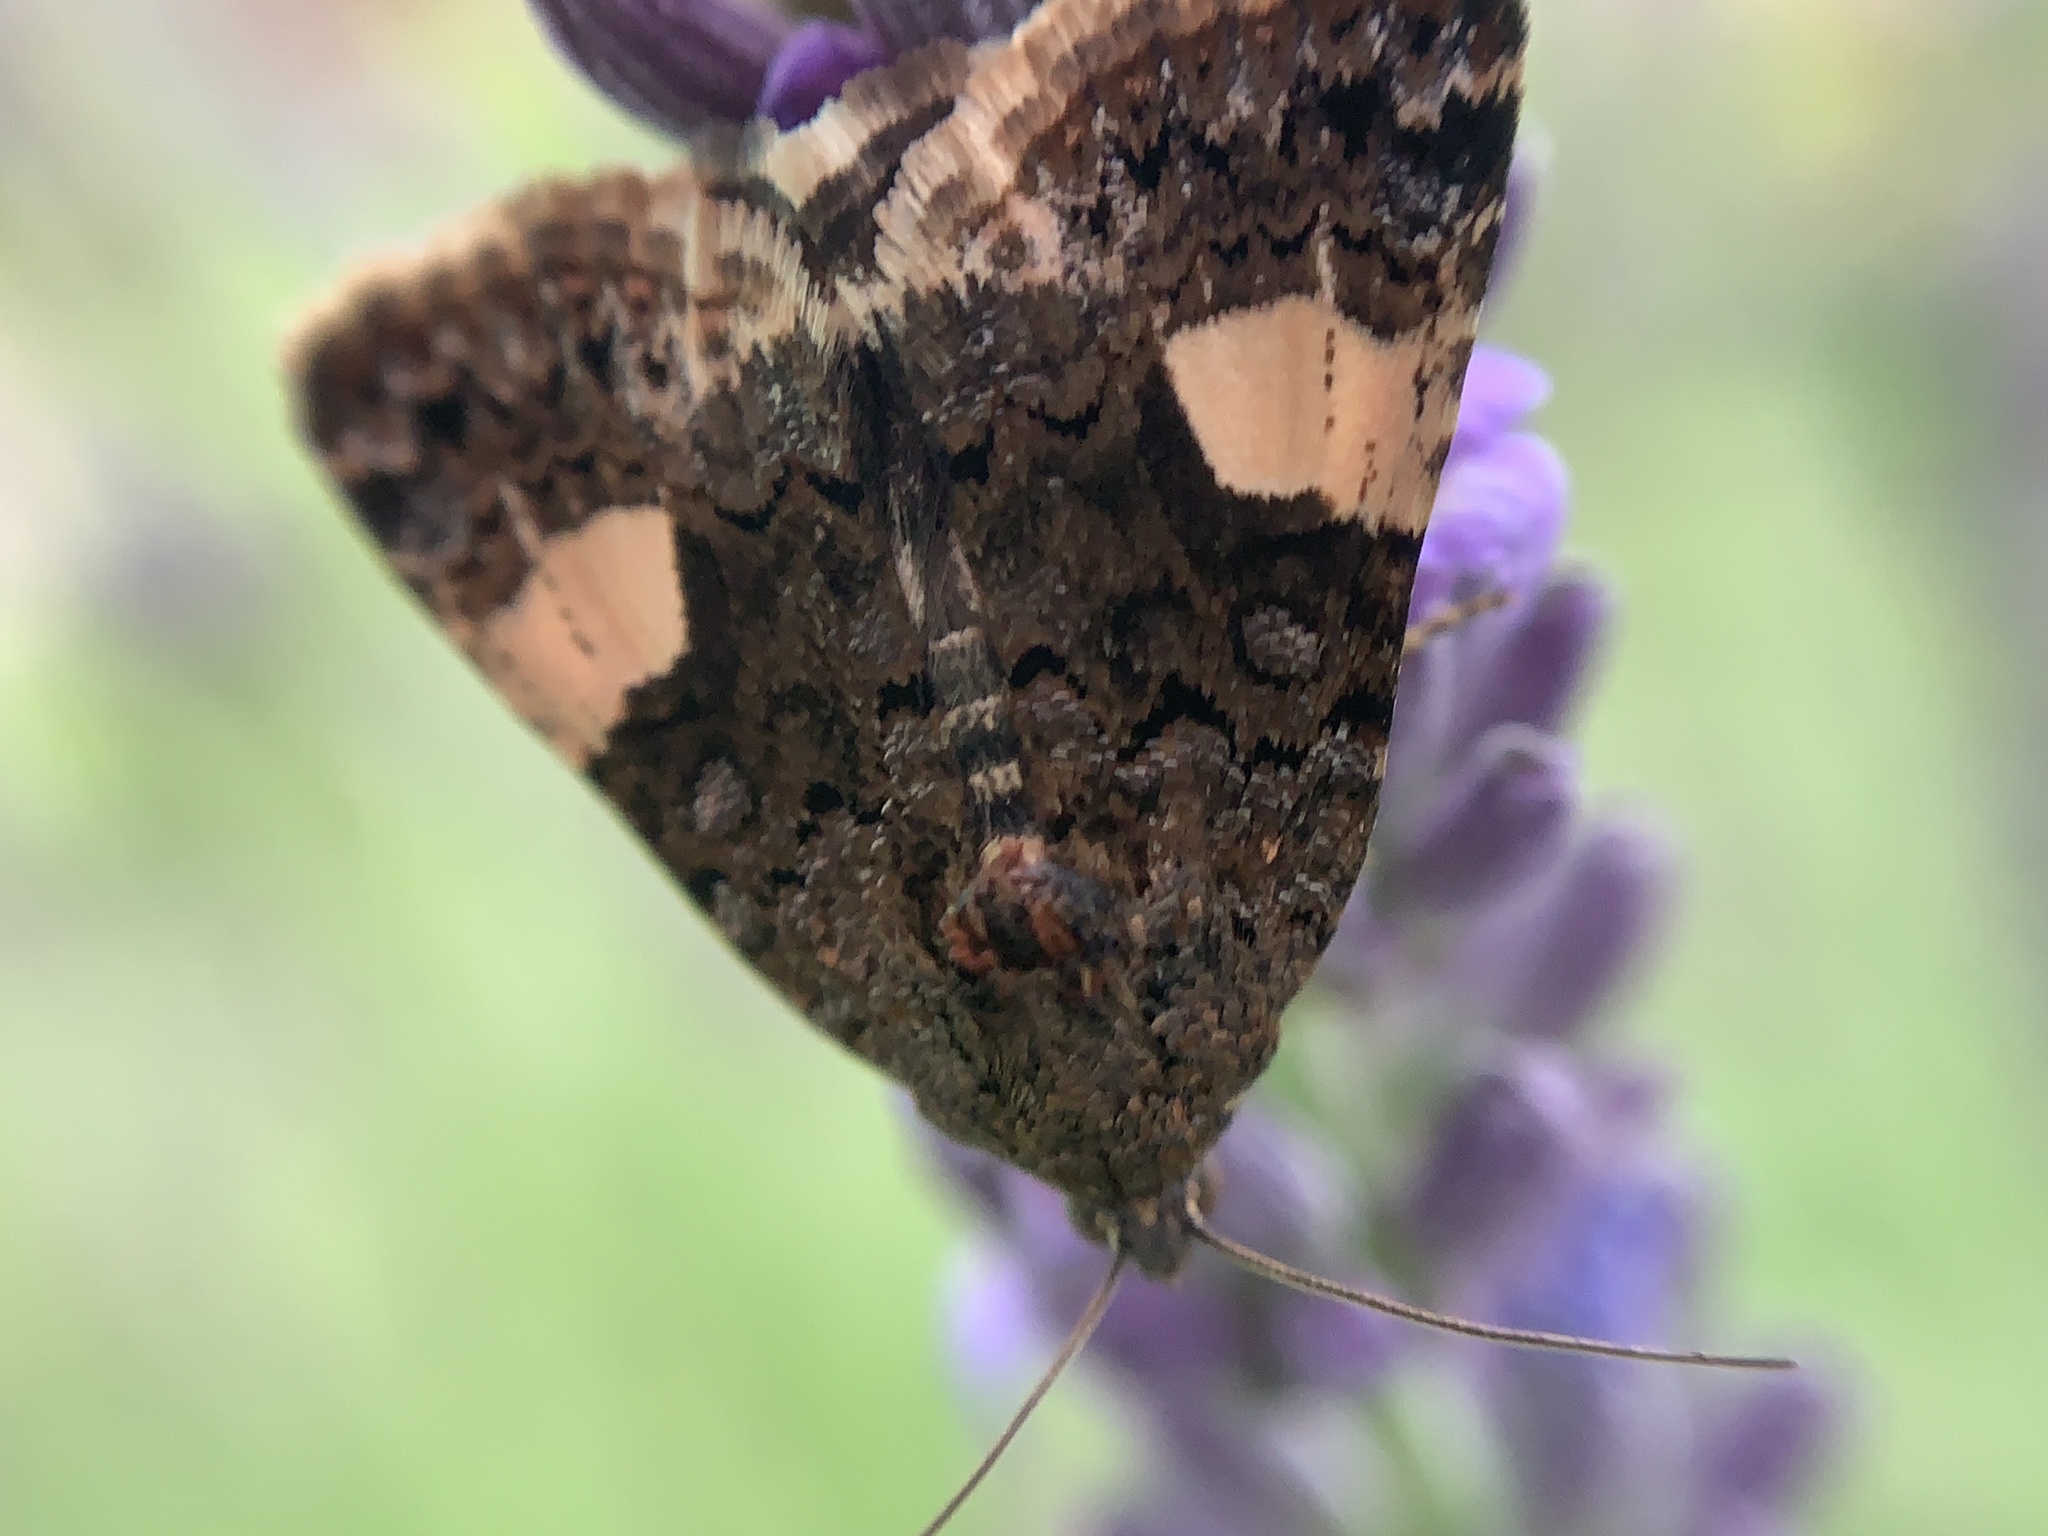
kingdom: Animalia
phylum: Arthropoda
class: Insecta
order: Lepidoptera
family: Erebidae
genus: Tyta
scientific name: Tyta luctuosa
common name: Four-spotted
